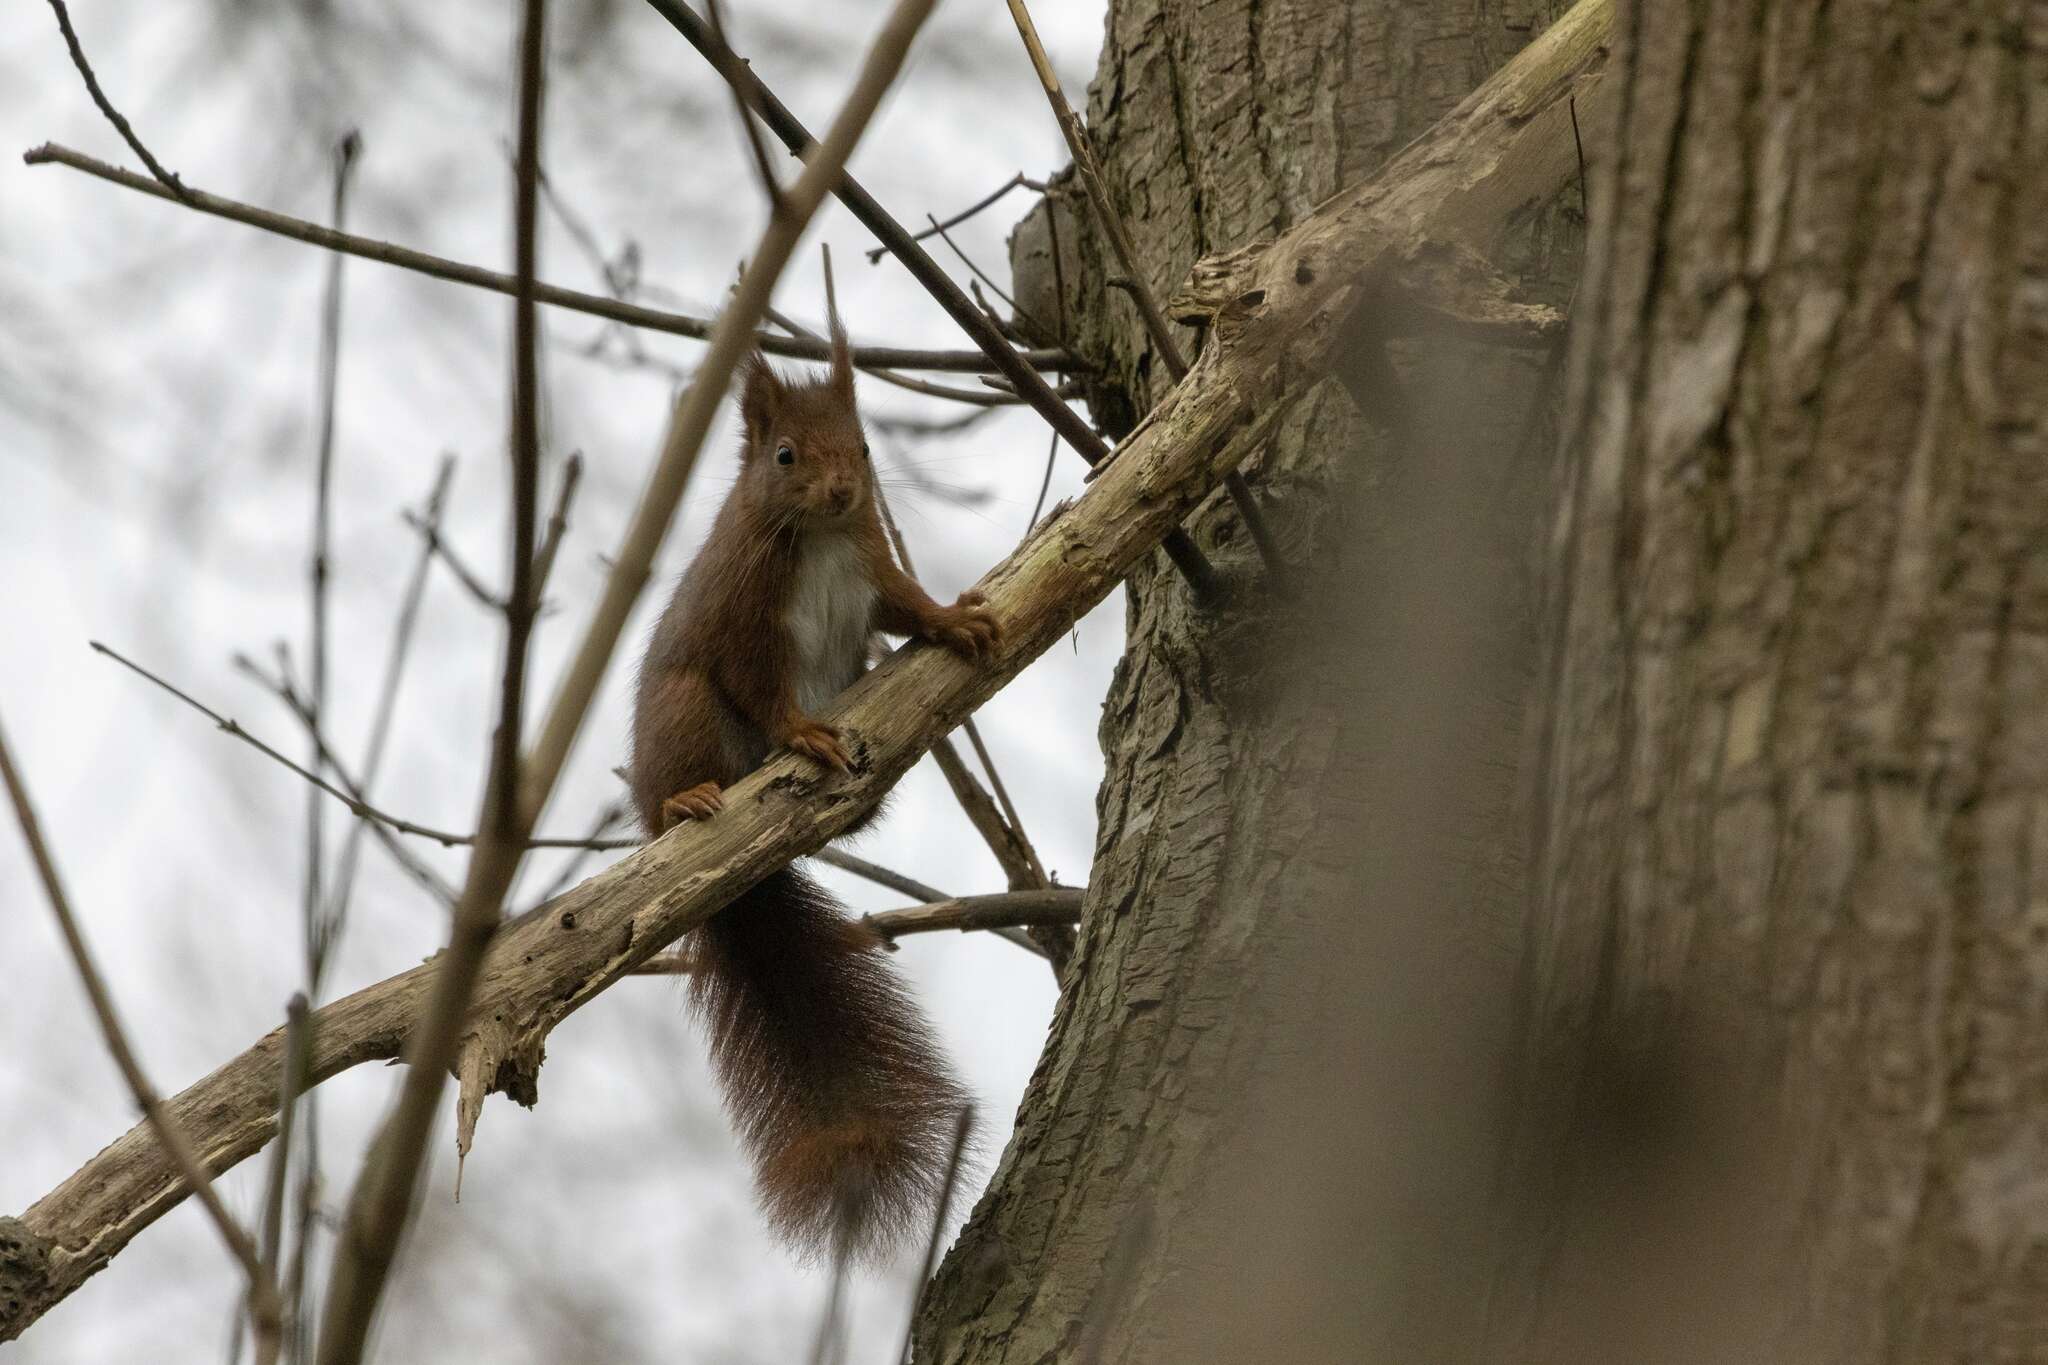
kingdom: Animalia
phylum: Chordata
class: Mammalia
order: Rodentia
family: Sciuridae
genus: Sciurus
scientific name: Sciurus vulgaris
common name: Eurasian red squirrel
